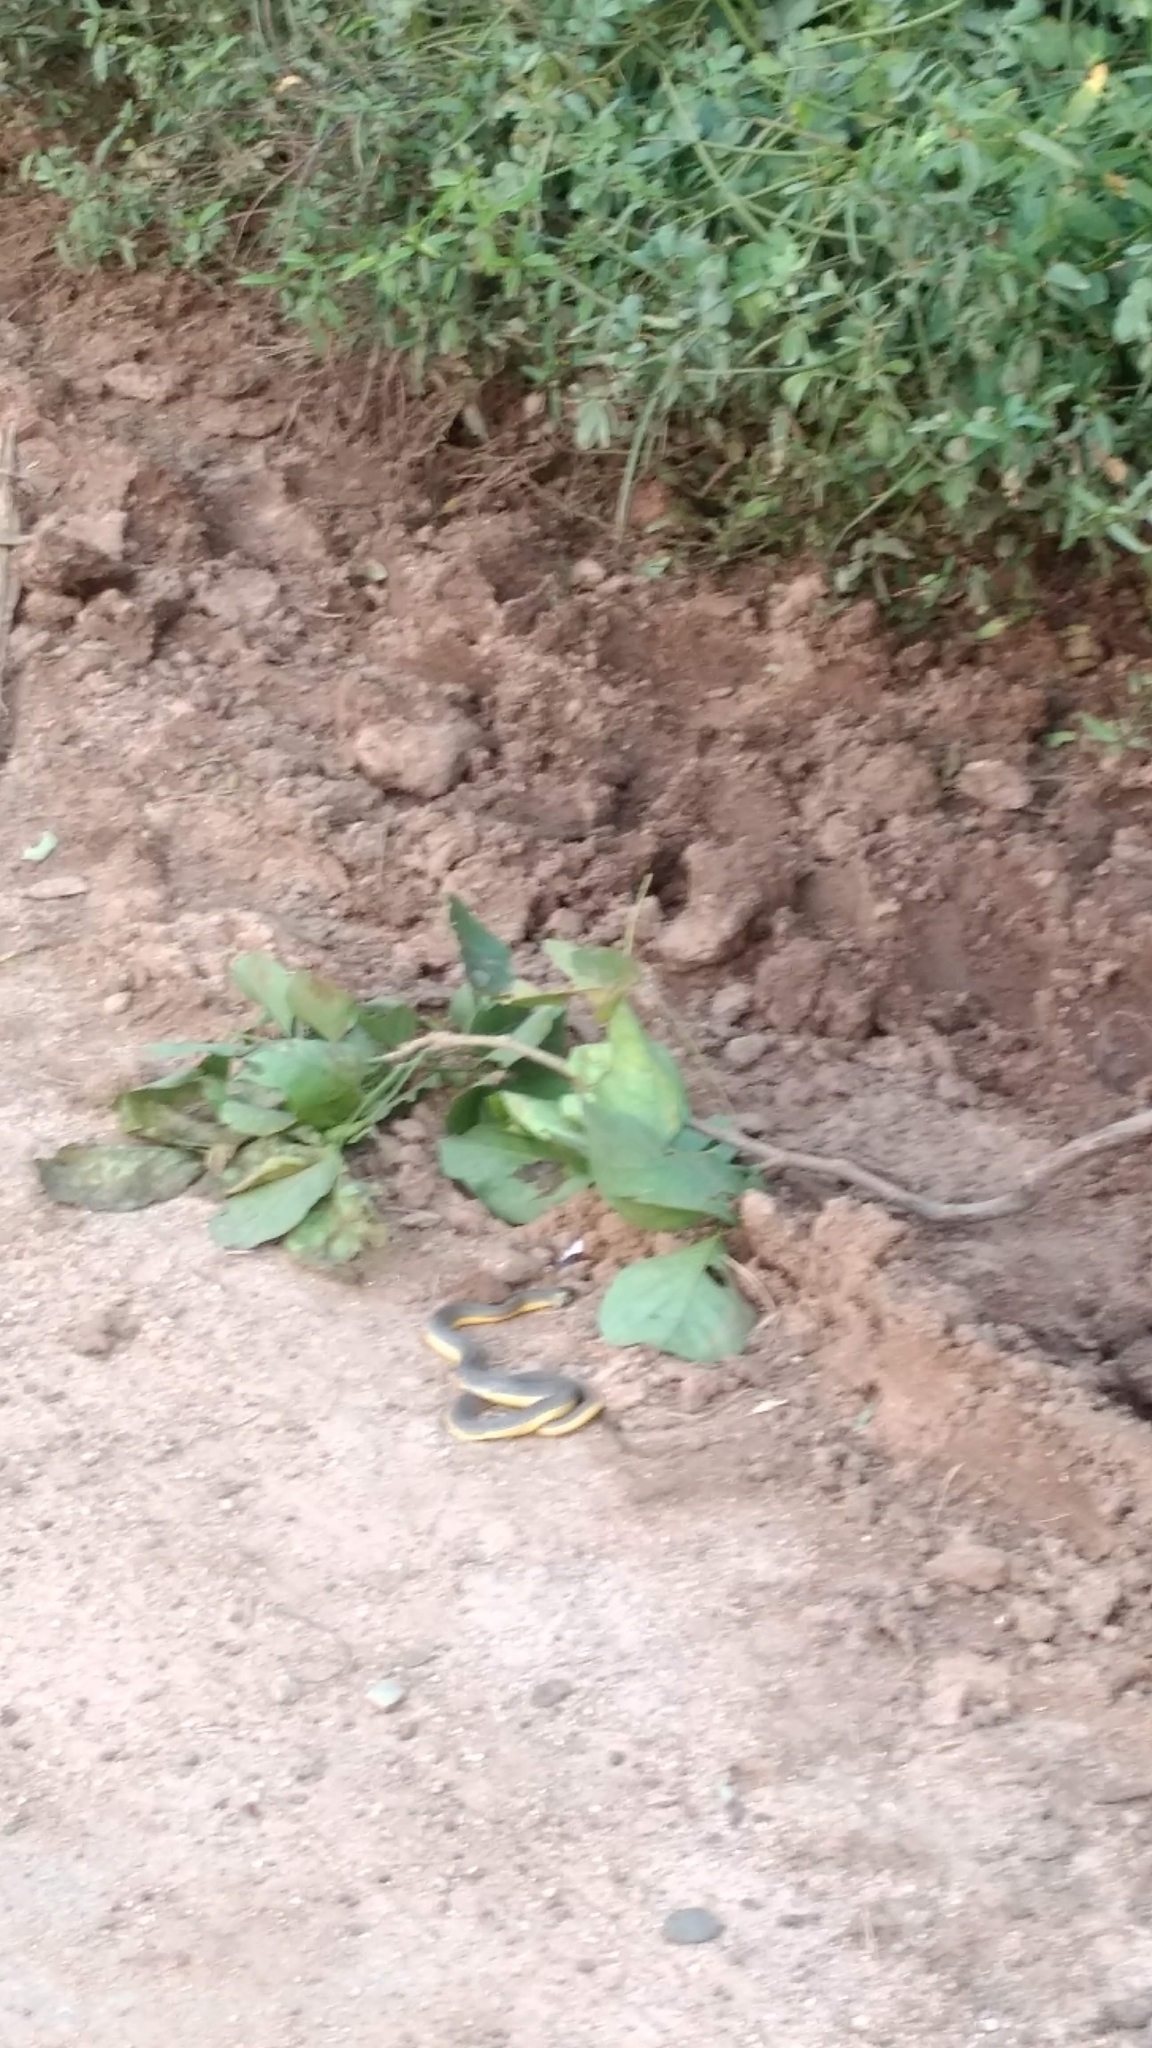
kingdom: Animalia
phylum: Chordata
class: Squamata
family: Colubridae
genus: Atretium
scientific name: Atretium schistosum
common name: Olive keelback wart snake
